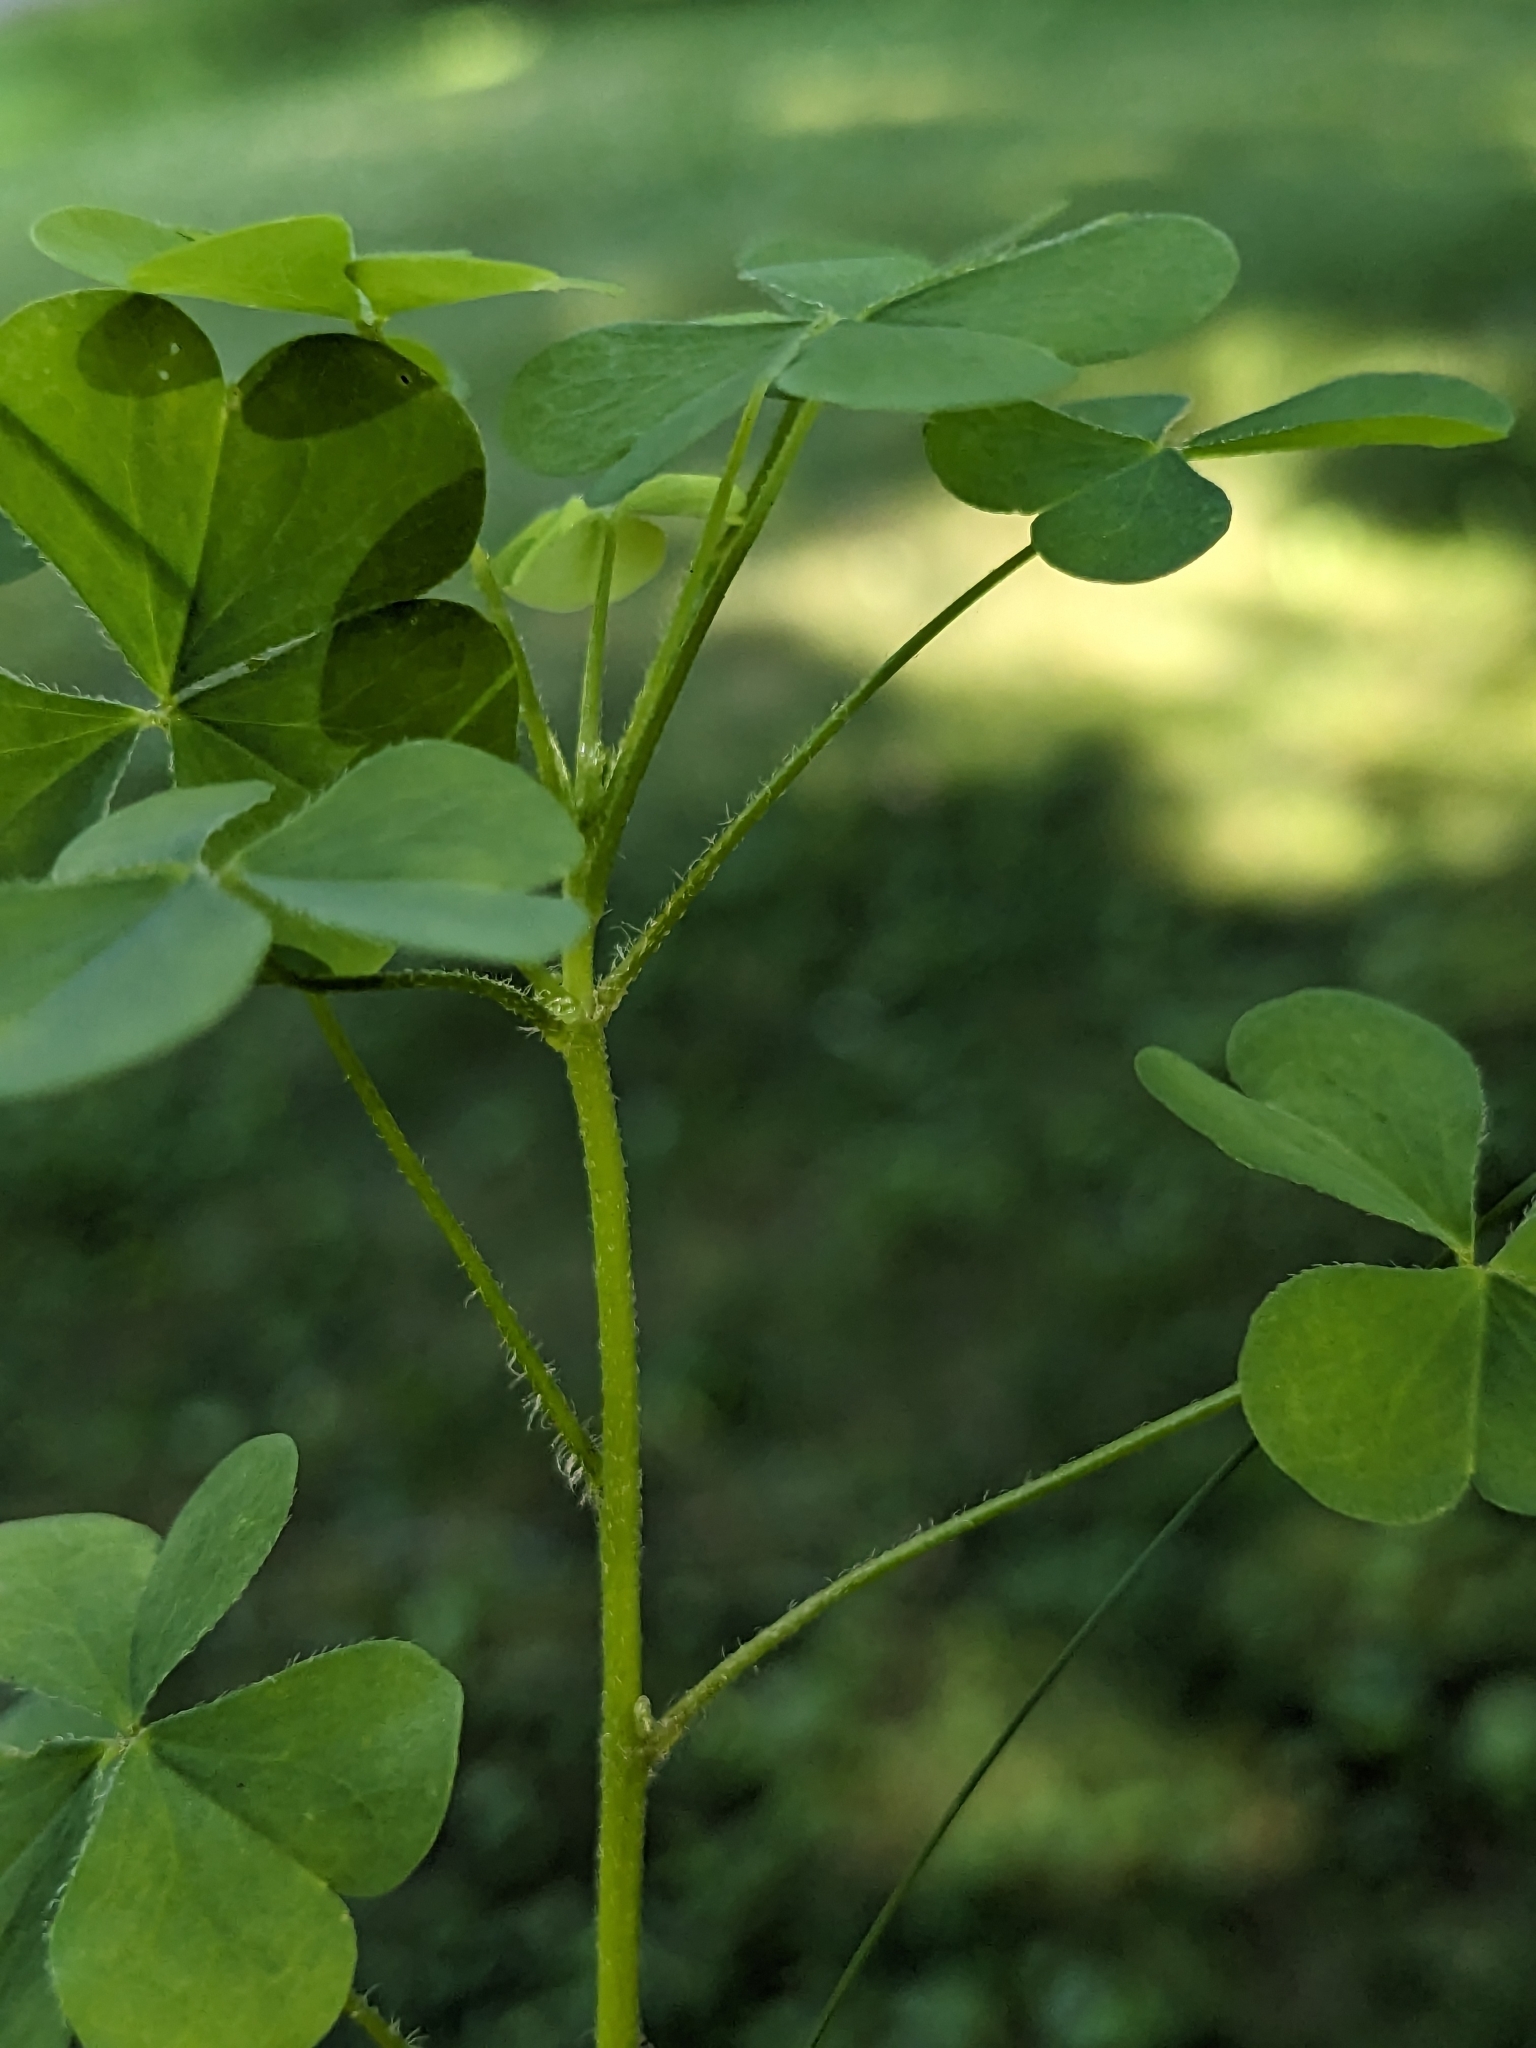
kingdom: Plantae
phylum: Tracheophyta
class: Magnoliopsida
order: Oxalidales
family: Oxalidaceae
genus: Oxalis
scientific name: Oxalis stricta
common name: Upright yellow-sorrel
